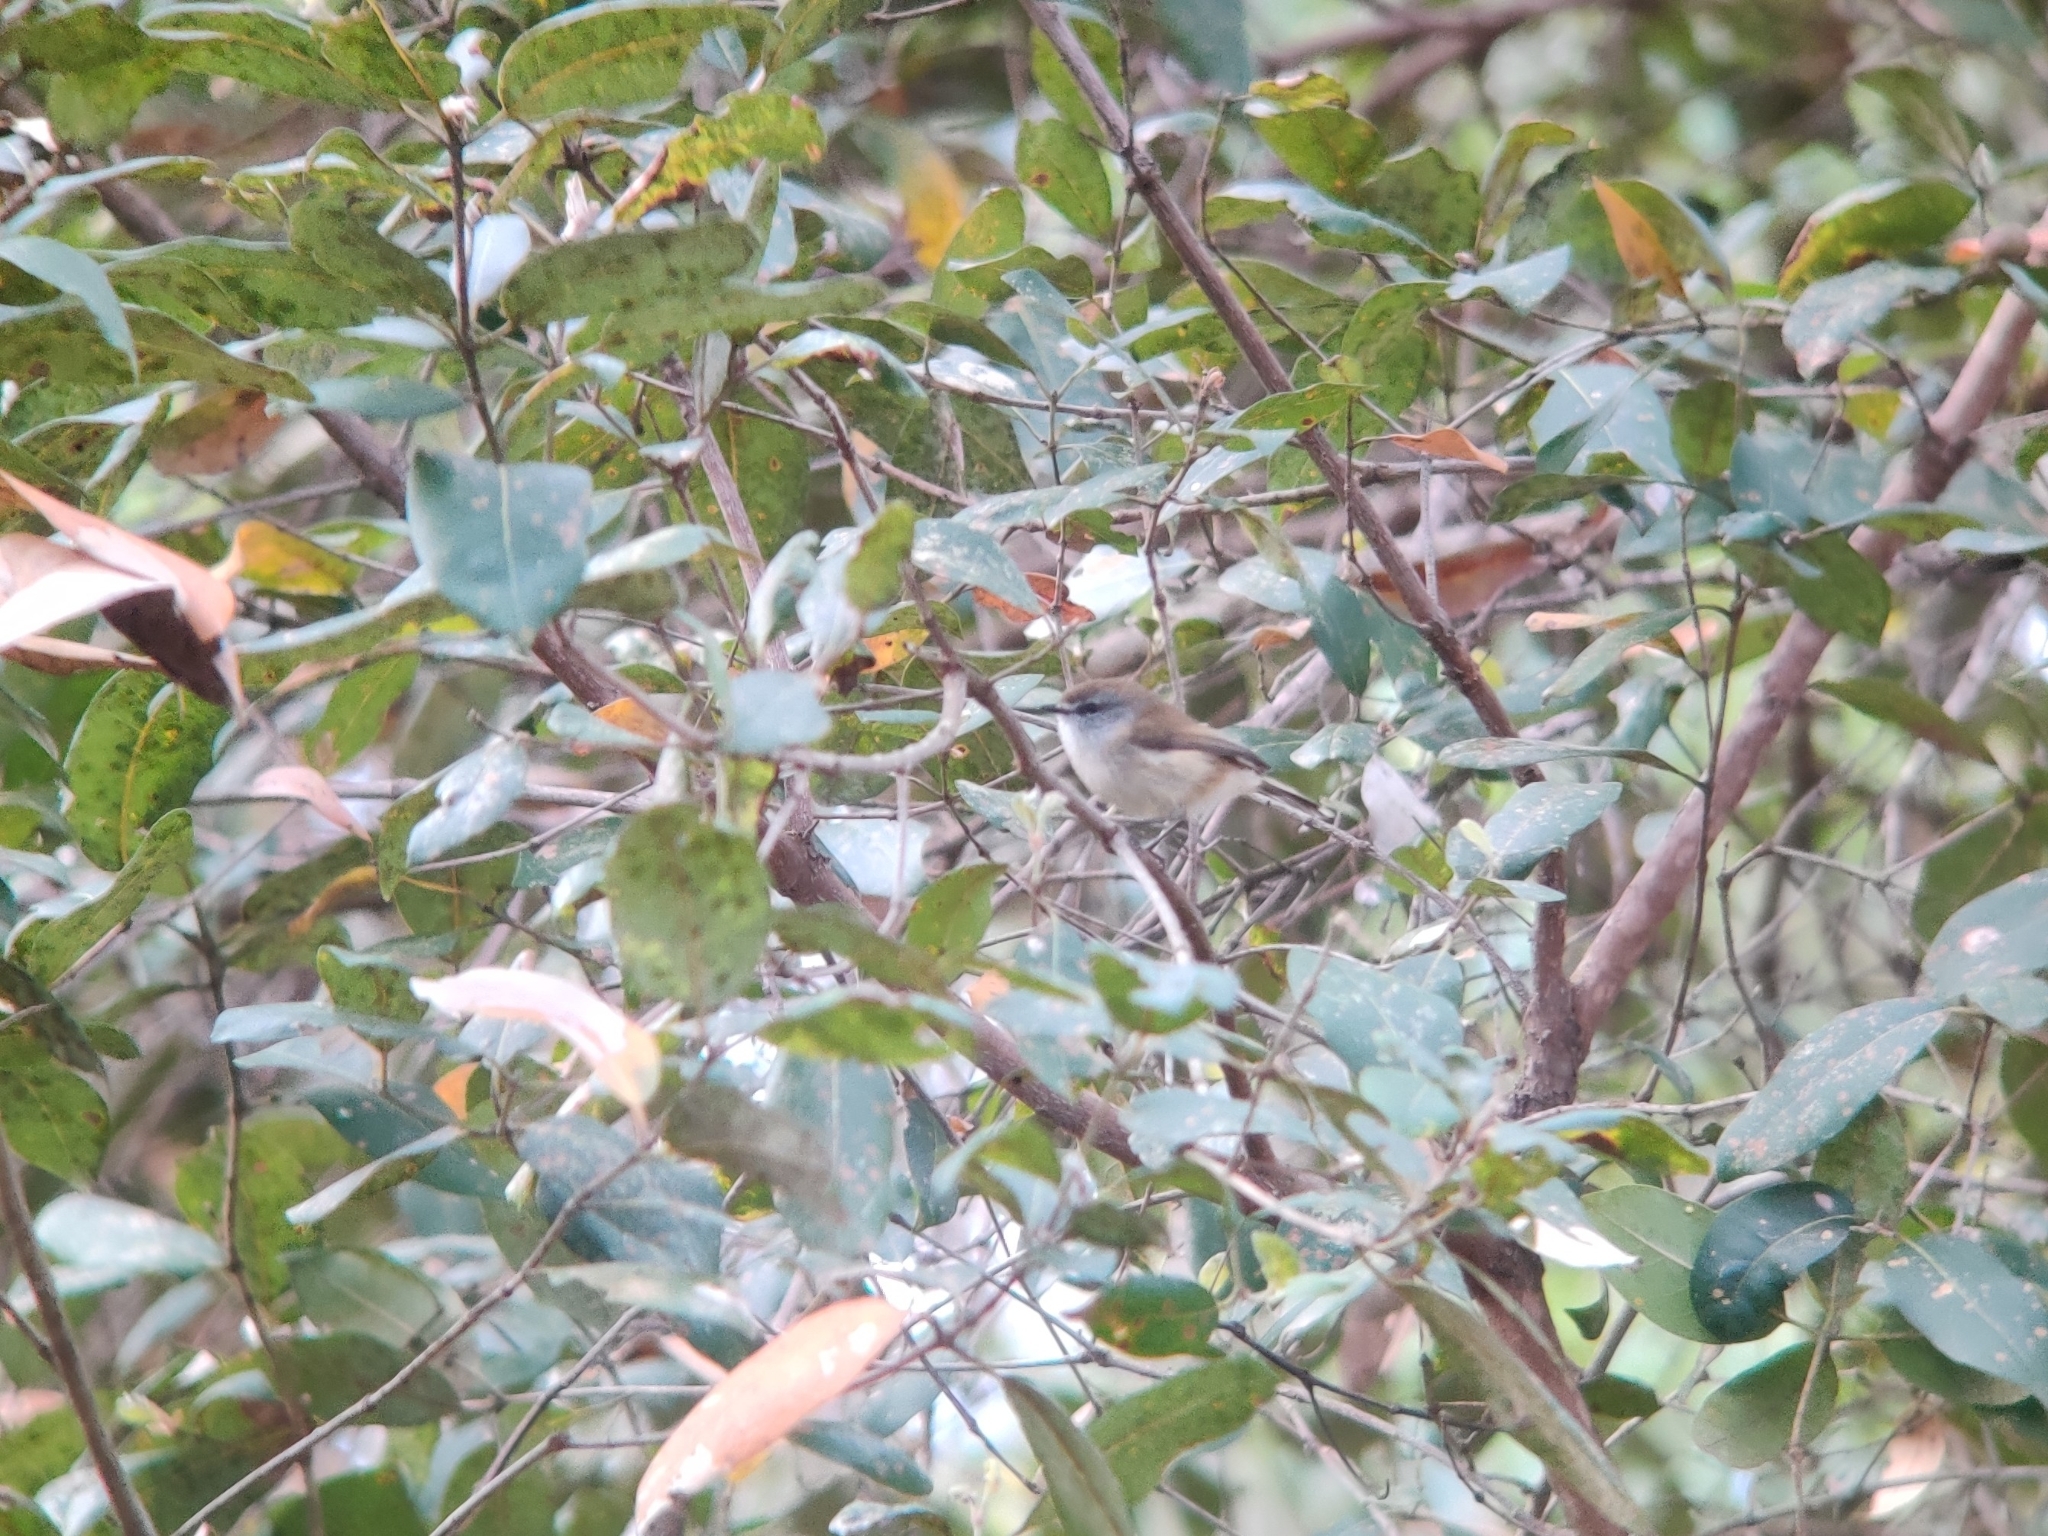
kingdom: Animalia
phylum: Chordata
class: Aves
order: Passeriformes
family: Acanthizidae
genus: Gerygone
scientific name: Gerygone mouki
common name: Brown gerygone
